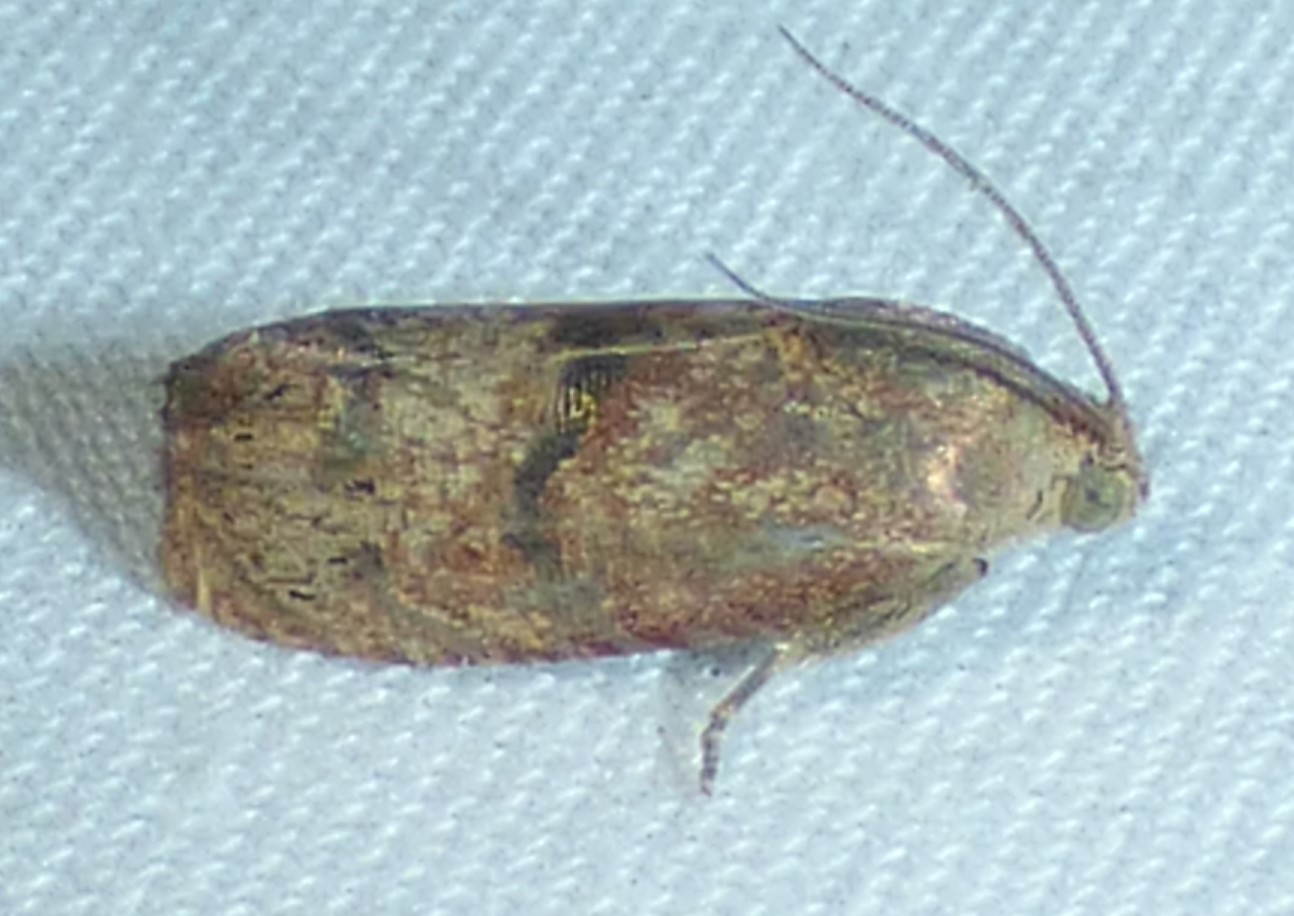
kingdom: Animalia
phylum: Arthropoda
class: Insecta
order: Lepidoptera
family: Tortricidae
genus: Cydia
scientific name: Cydia latiferreana
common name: Filbertworm moth
